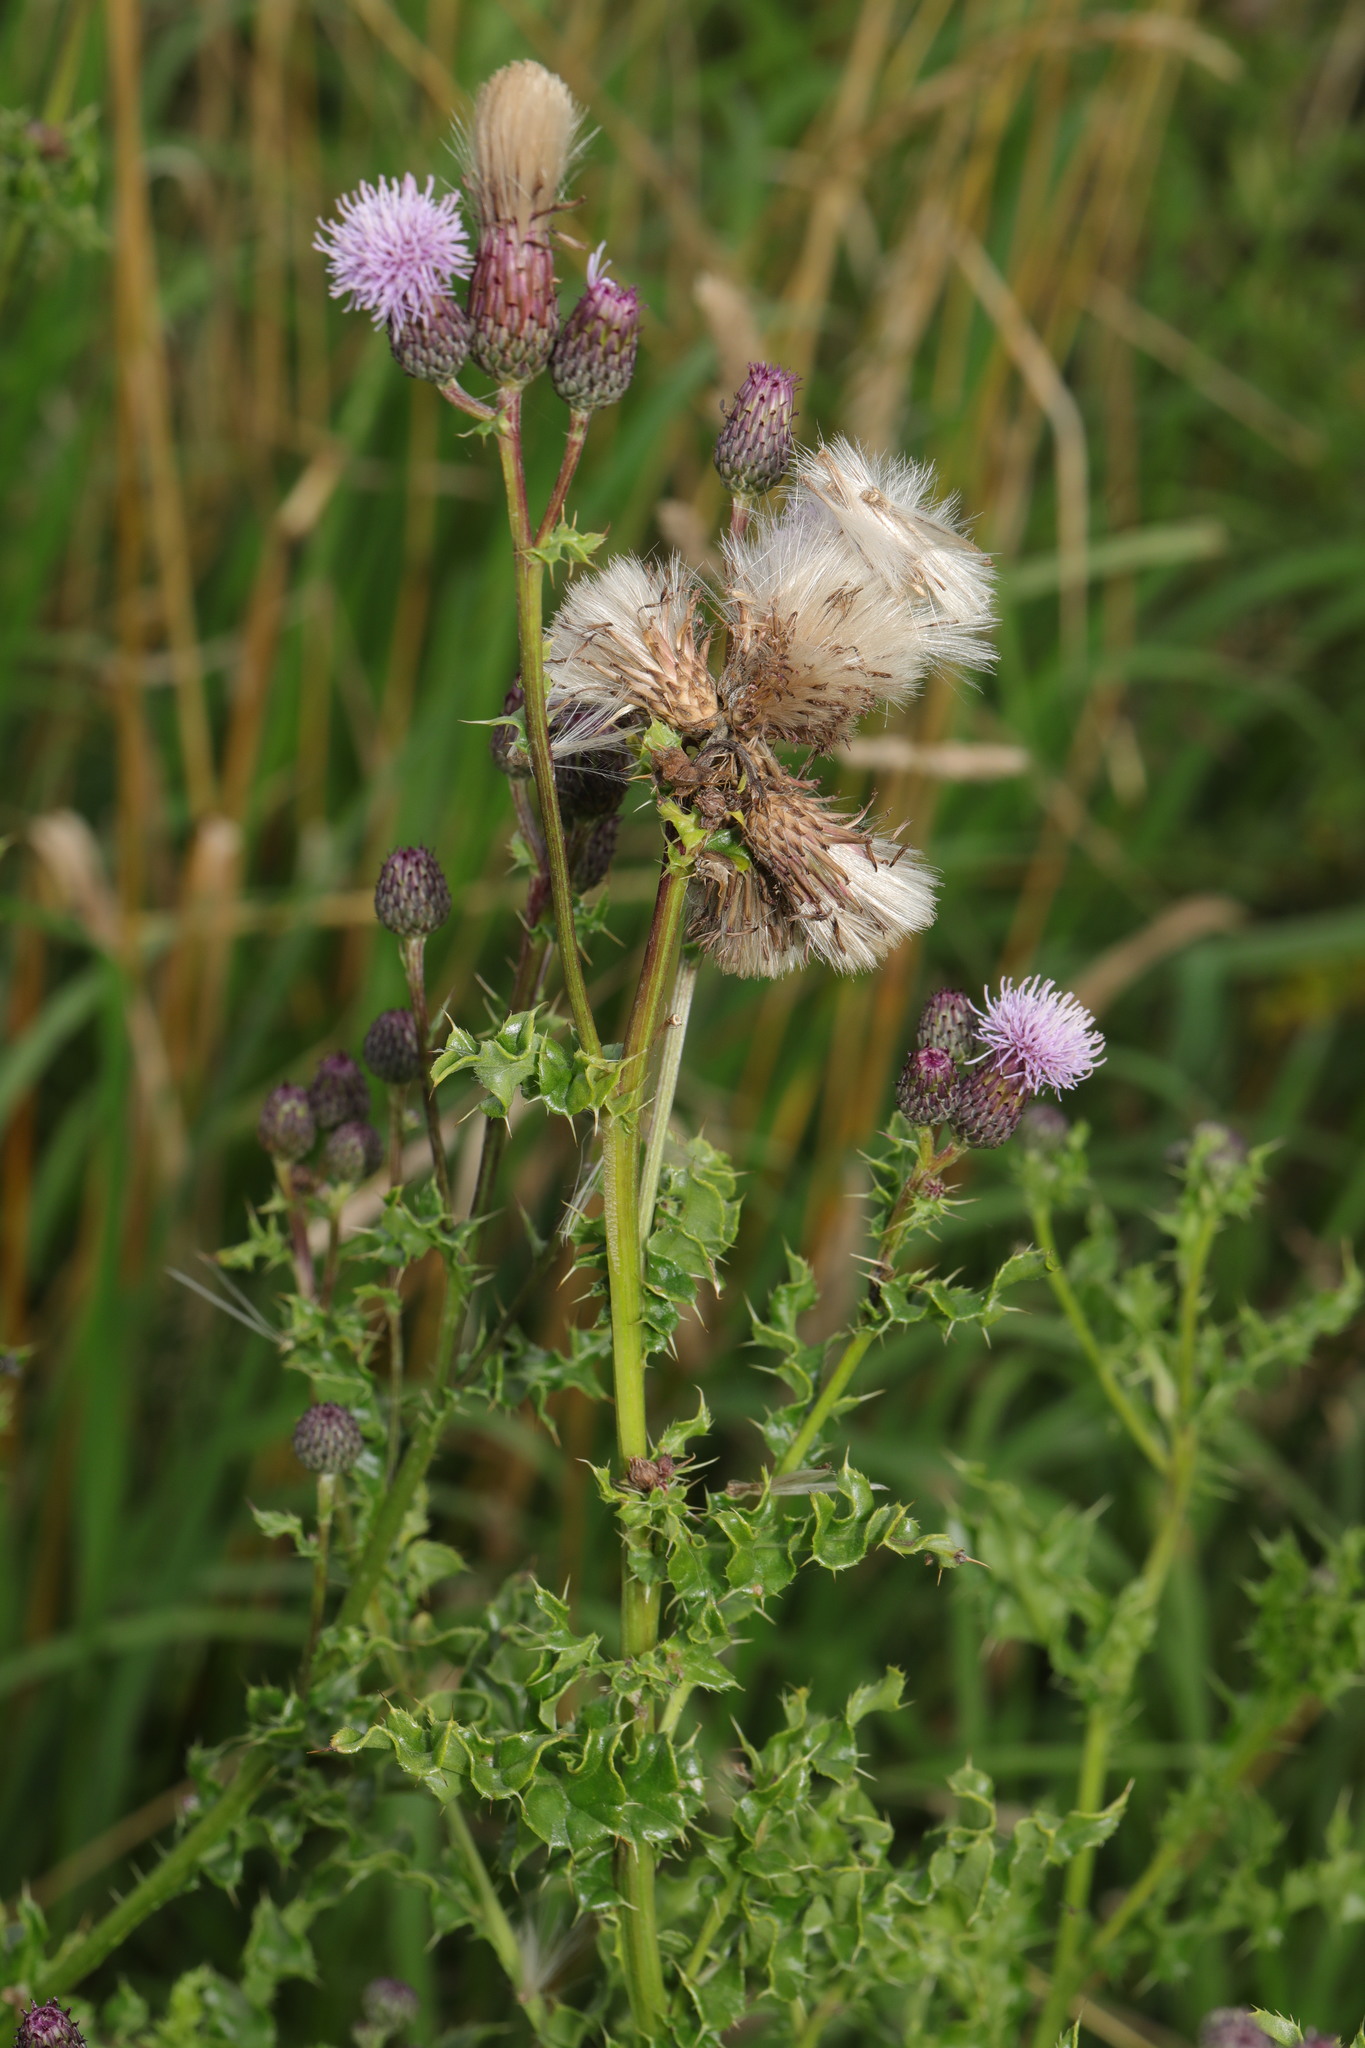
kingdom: Plantae
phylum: Tracheophyta
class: Magnoliopsida
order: Asterales
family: Asteraceae
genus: Cirsium
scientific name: Cirsium arvense
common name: Creeping thistle
